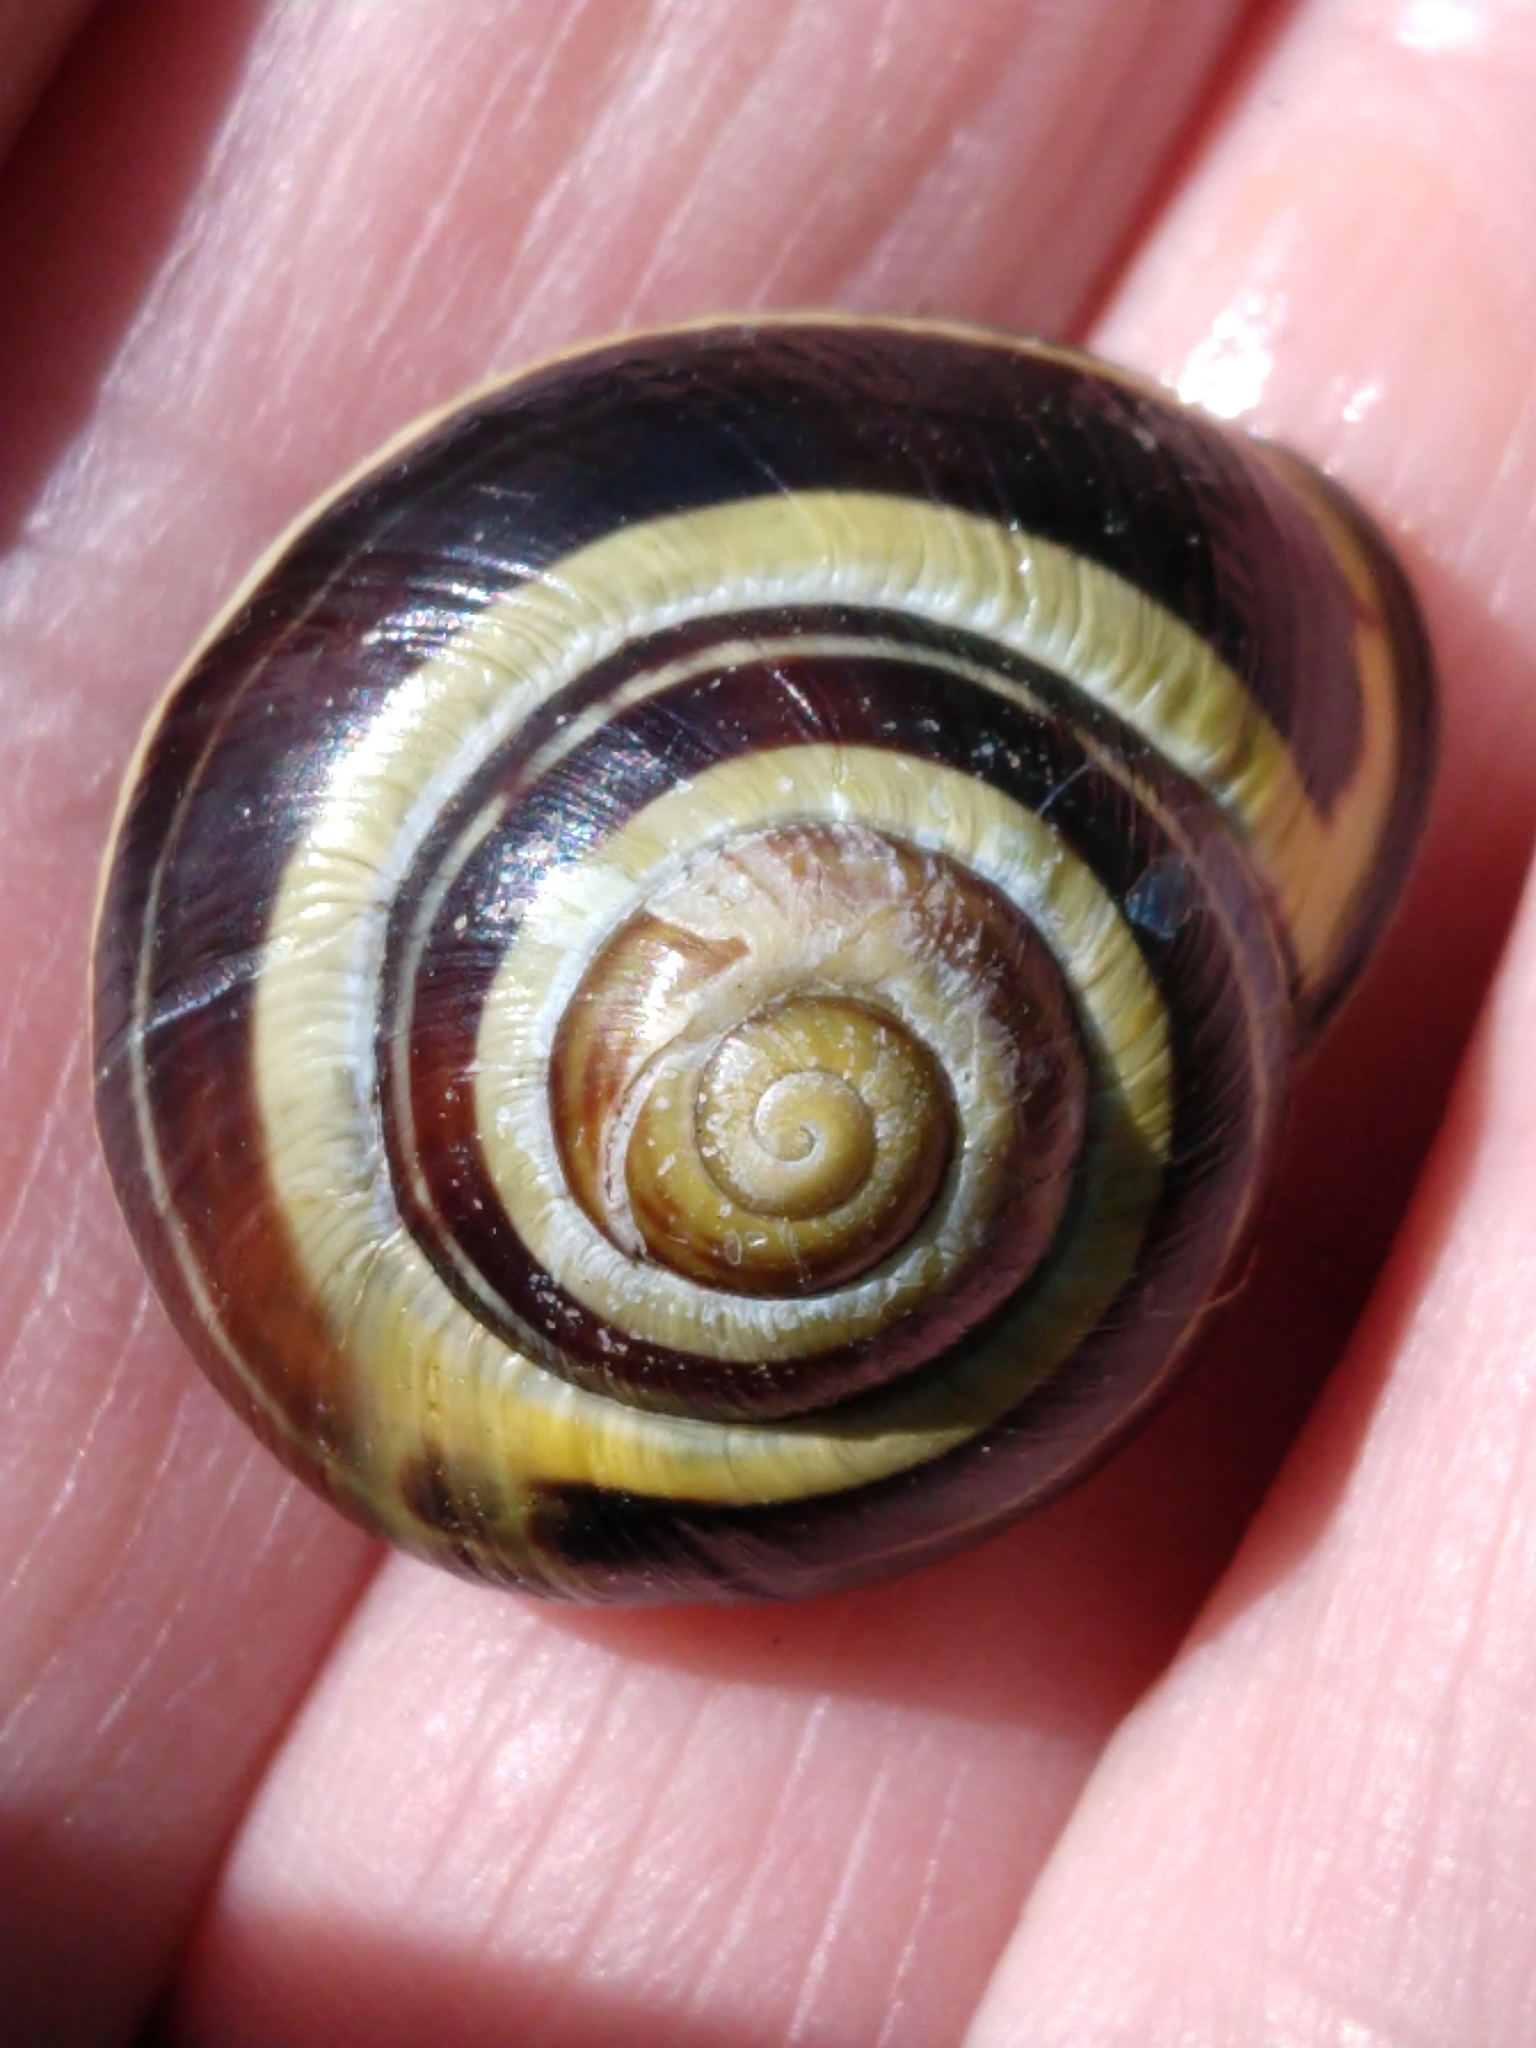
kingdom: Animalia
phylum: Mollusca
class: Gastropoda
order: Stylommatophora
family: Helicidae
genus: Cepaea
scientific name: Cepaea nemoralis
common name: Grovesnail
